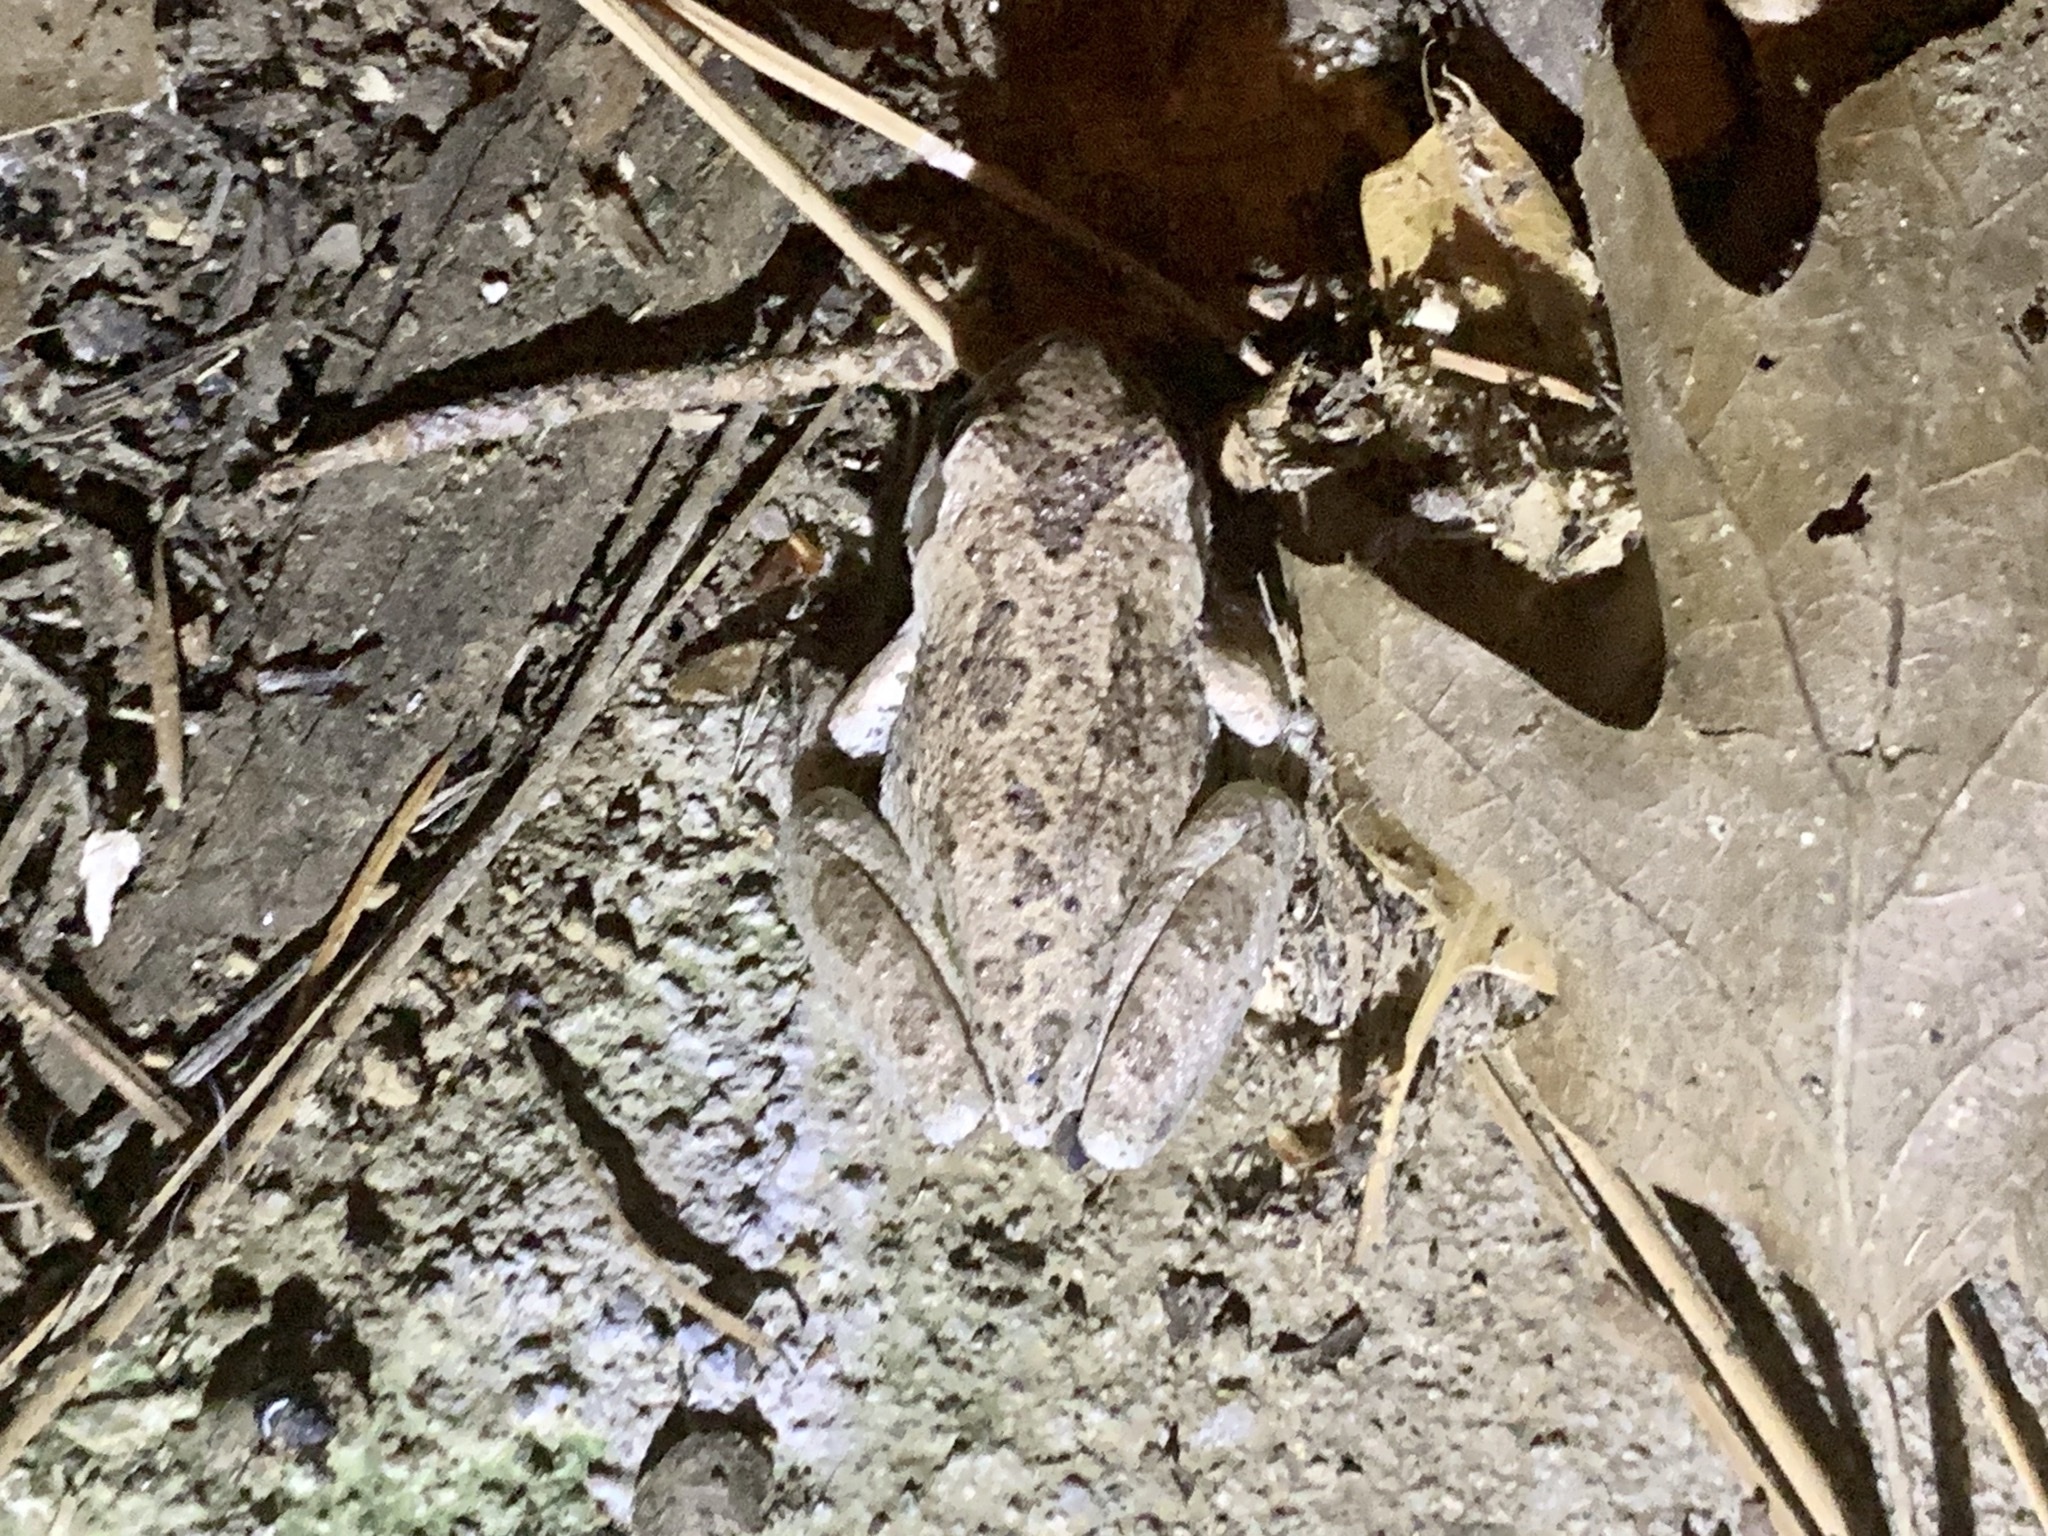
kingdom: Animalia
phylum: Chordata
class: Amphibia
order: Anura
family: Hylidae
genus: Pseudacris
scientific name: Pseudacris regilla
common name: Pacific chorus frog
